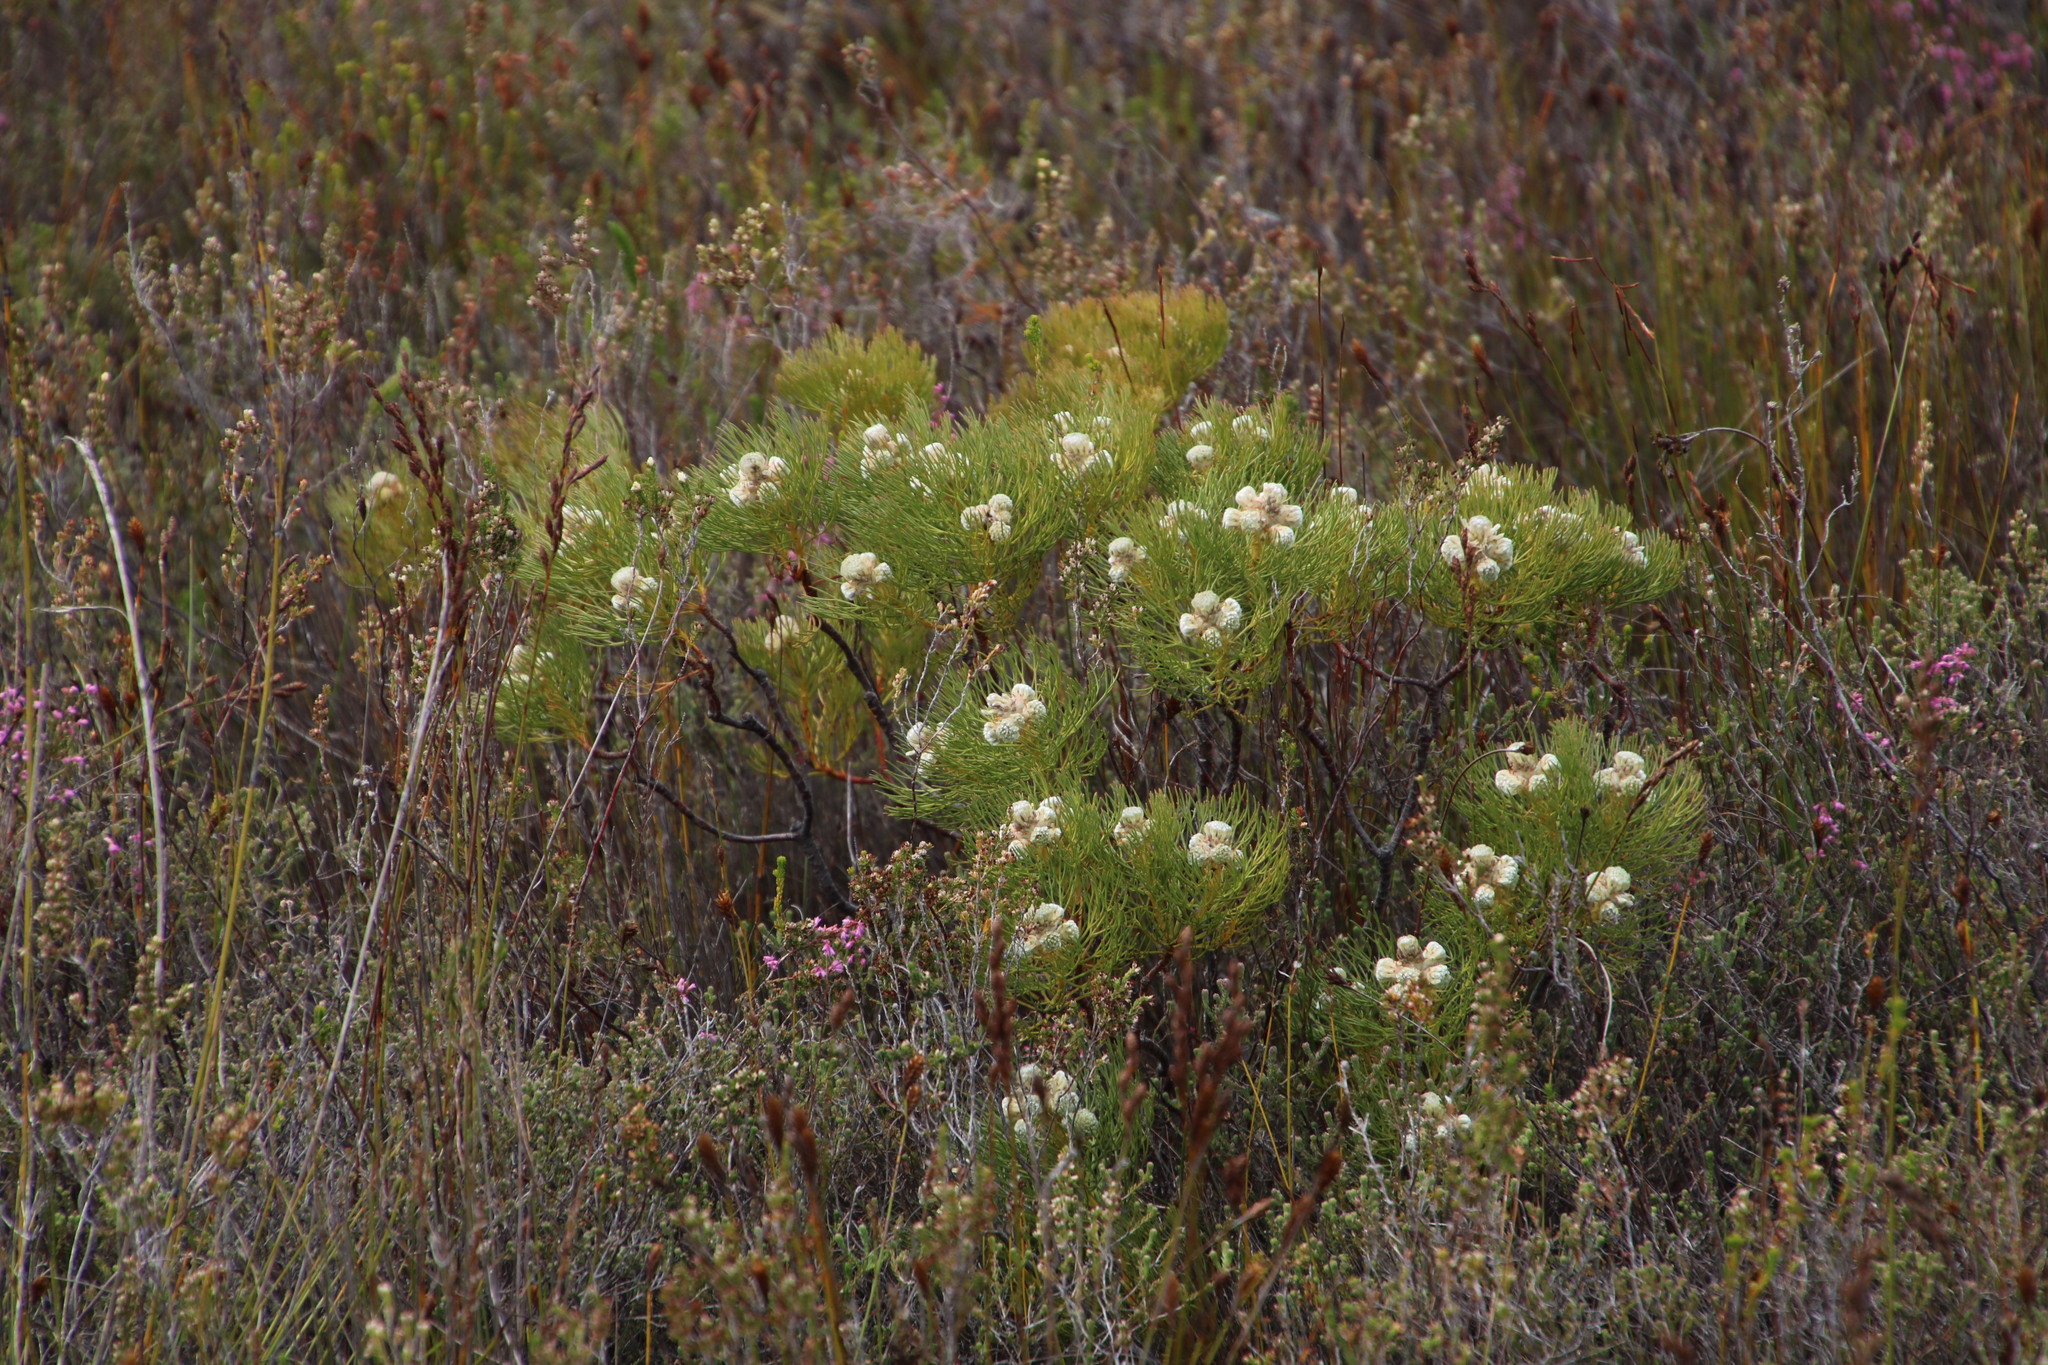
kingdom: Plantae
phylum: Tracheophyta
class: Magnoliopsida
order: Proteales
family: Proteaceae
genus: Serruria
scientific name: Serruria glomerata
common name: Cluster spiderhead
